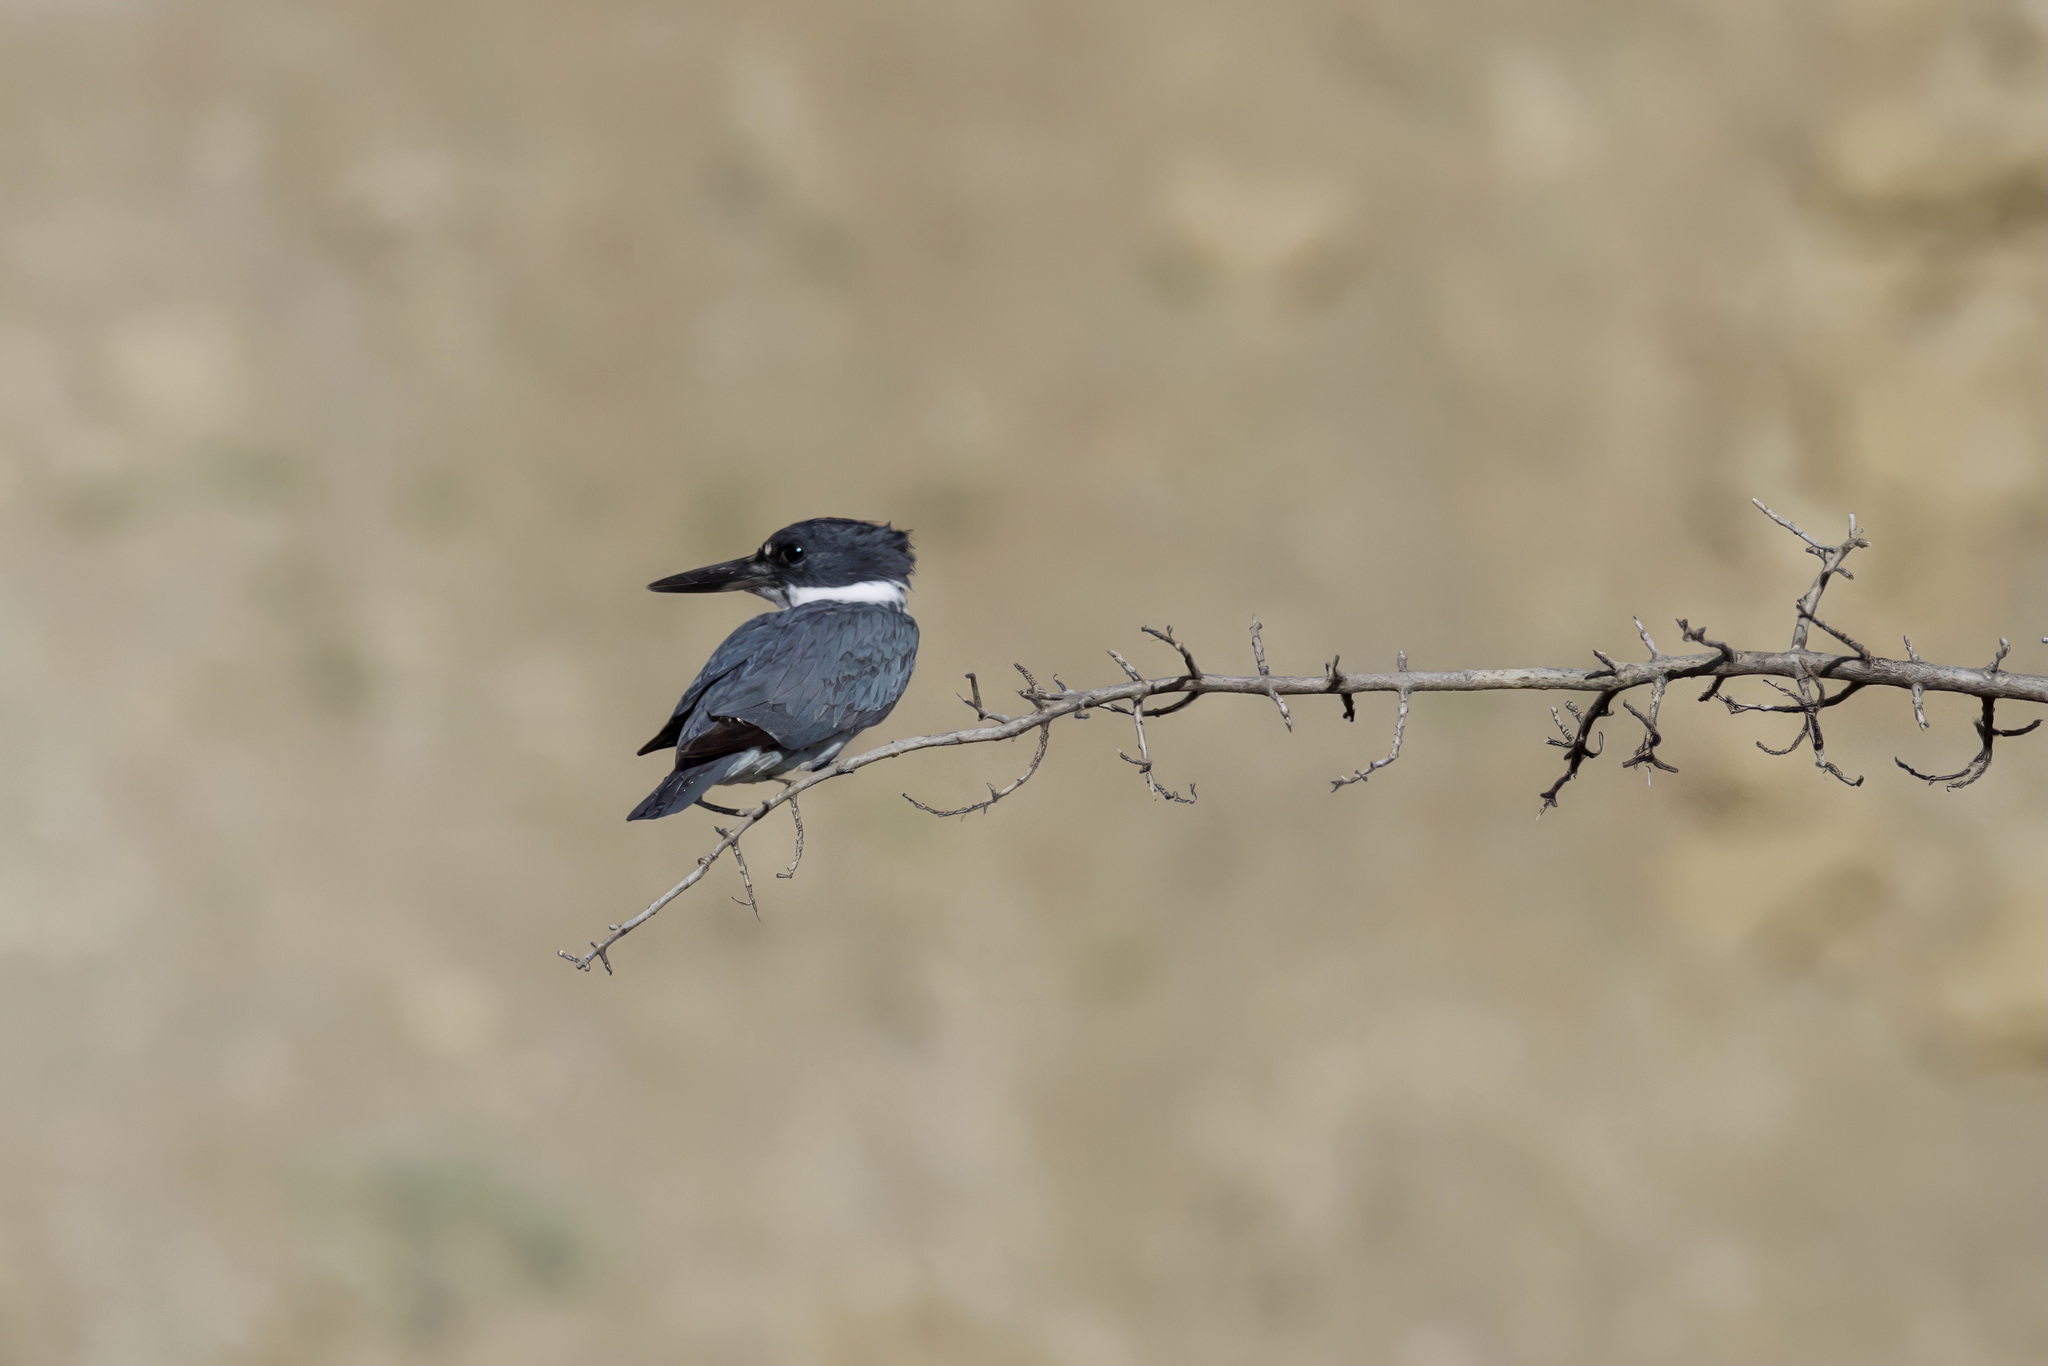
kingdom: Animalia
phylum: Chordata
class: Aves
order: Coraciiformes
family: Alcedinidae
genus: Megaceryle
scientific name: Megaceryle alcyon
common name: Belted kingfisher
